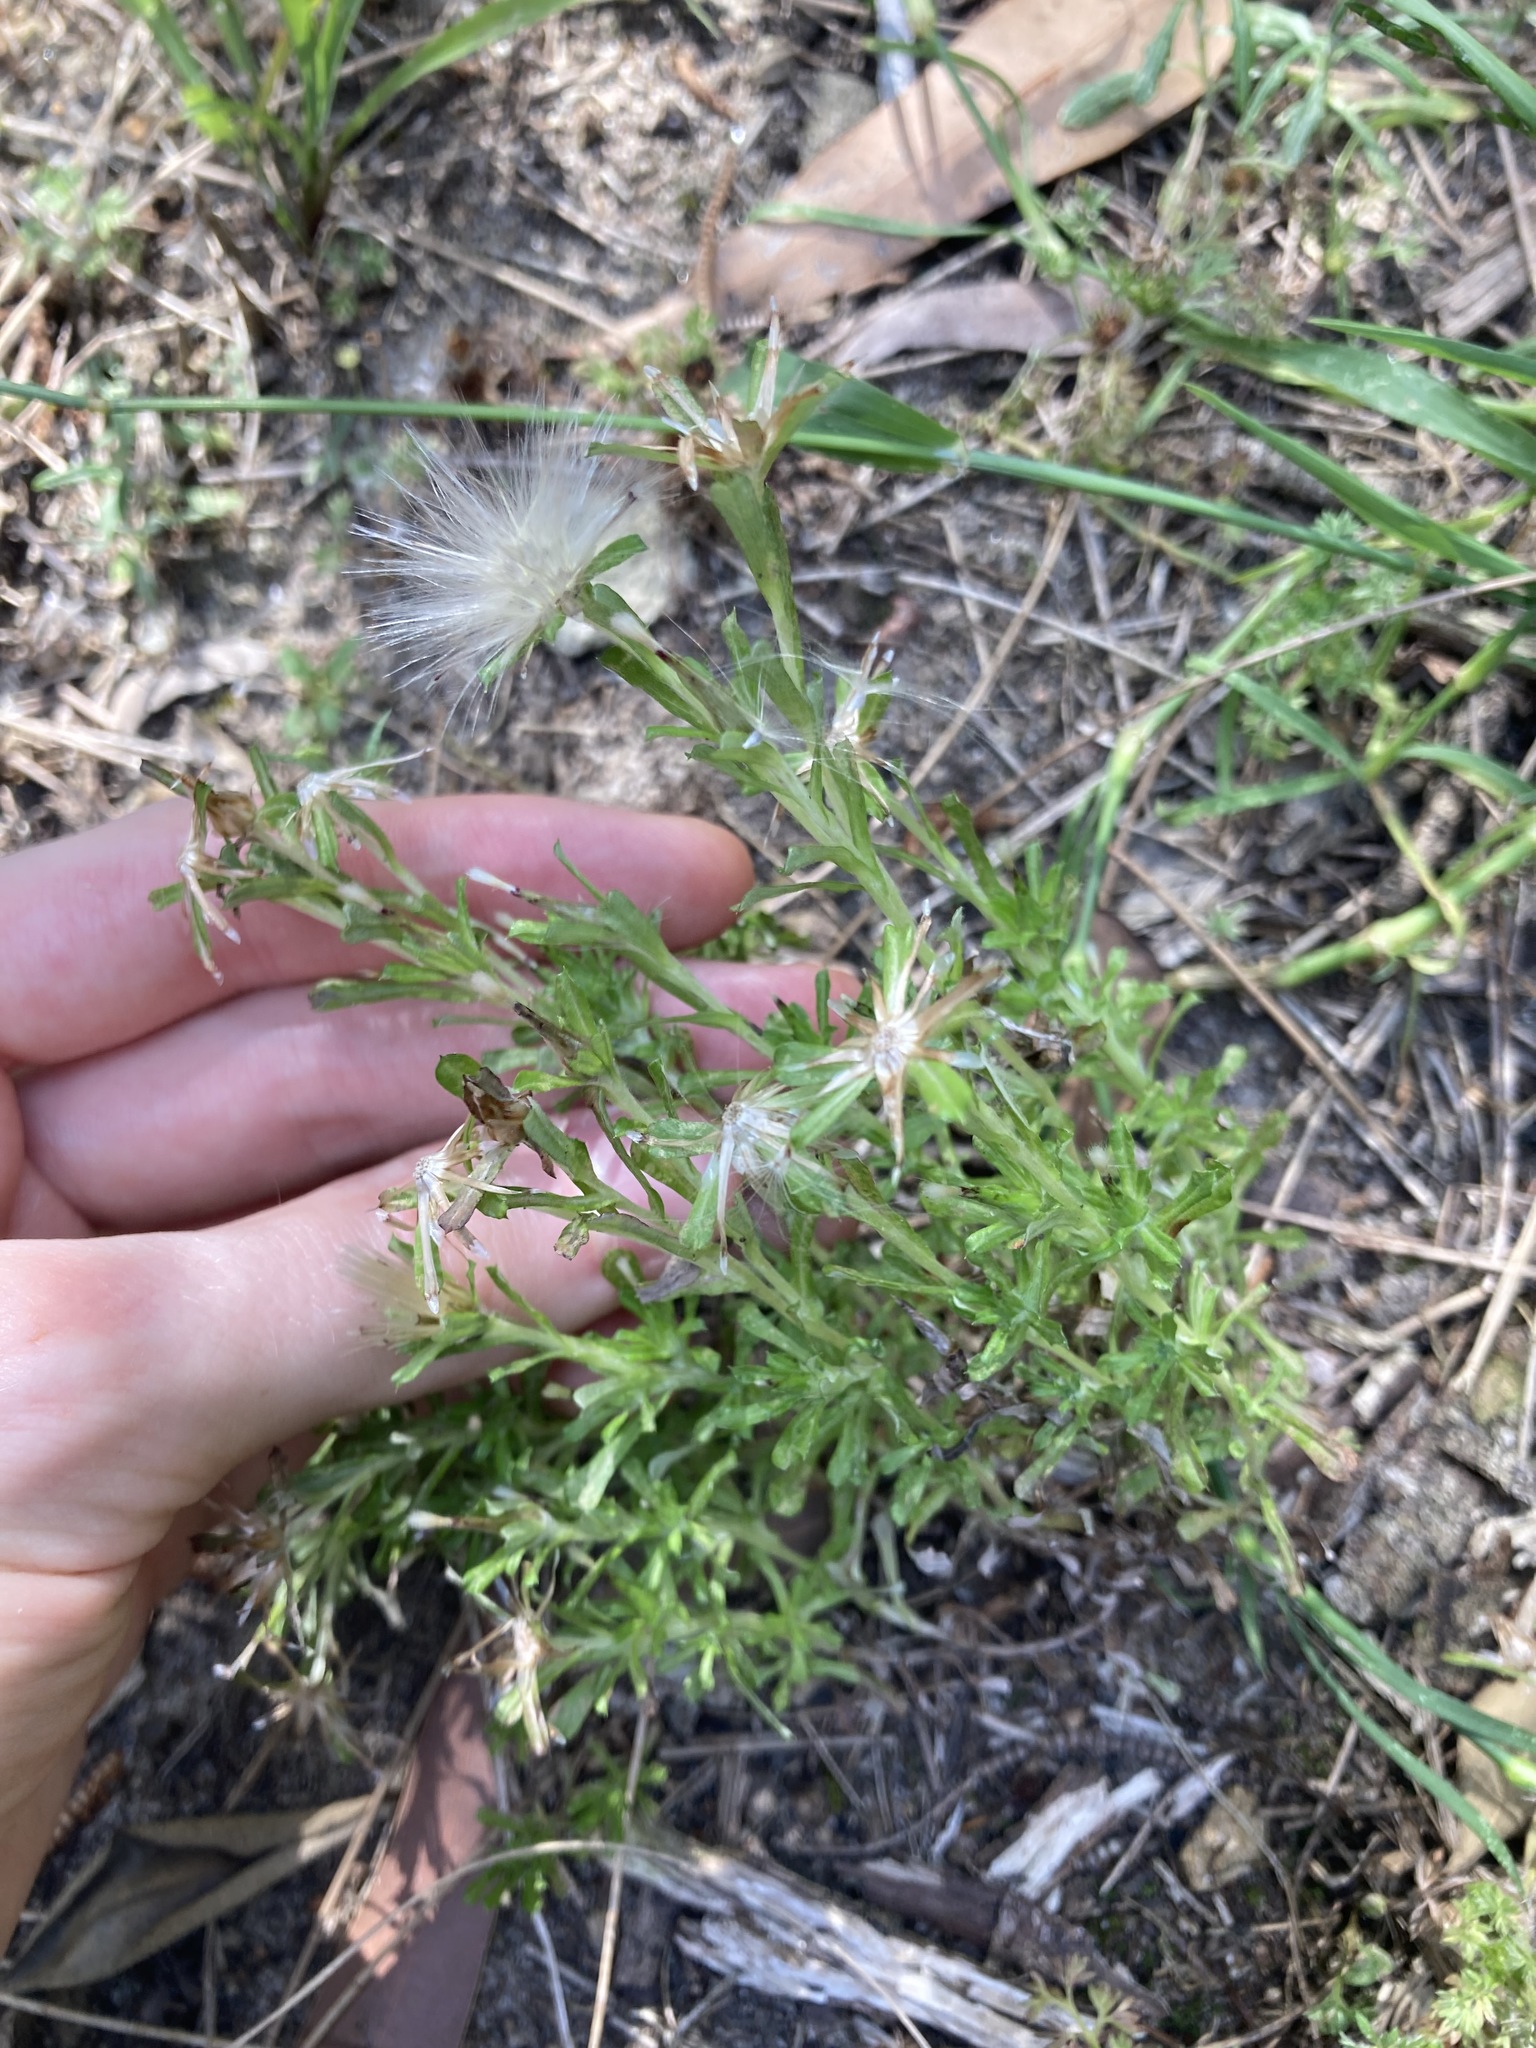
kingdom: Plantae
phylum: Tracheophyta
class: Magnoliopsida
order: Asterales
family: Asteraceae
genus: Facelis
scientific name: Facelis retusa
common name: Annual trampweed
